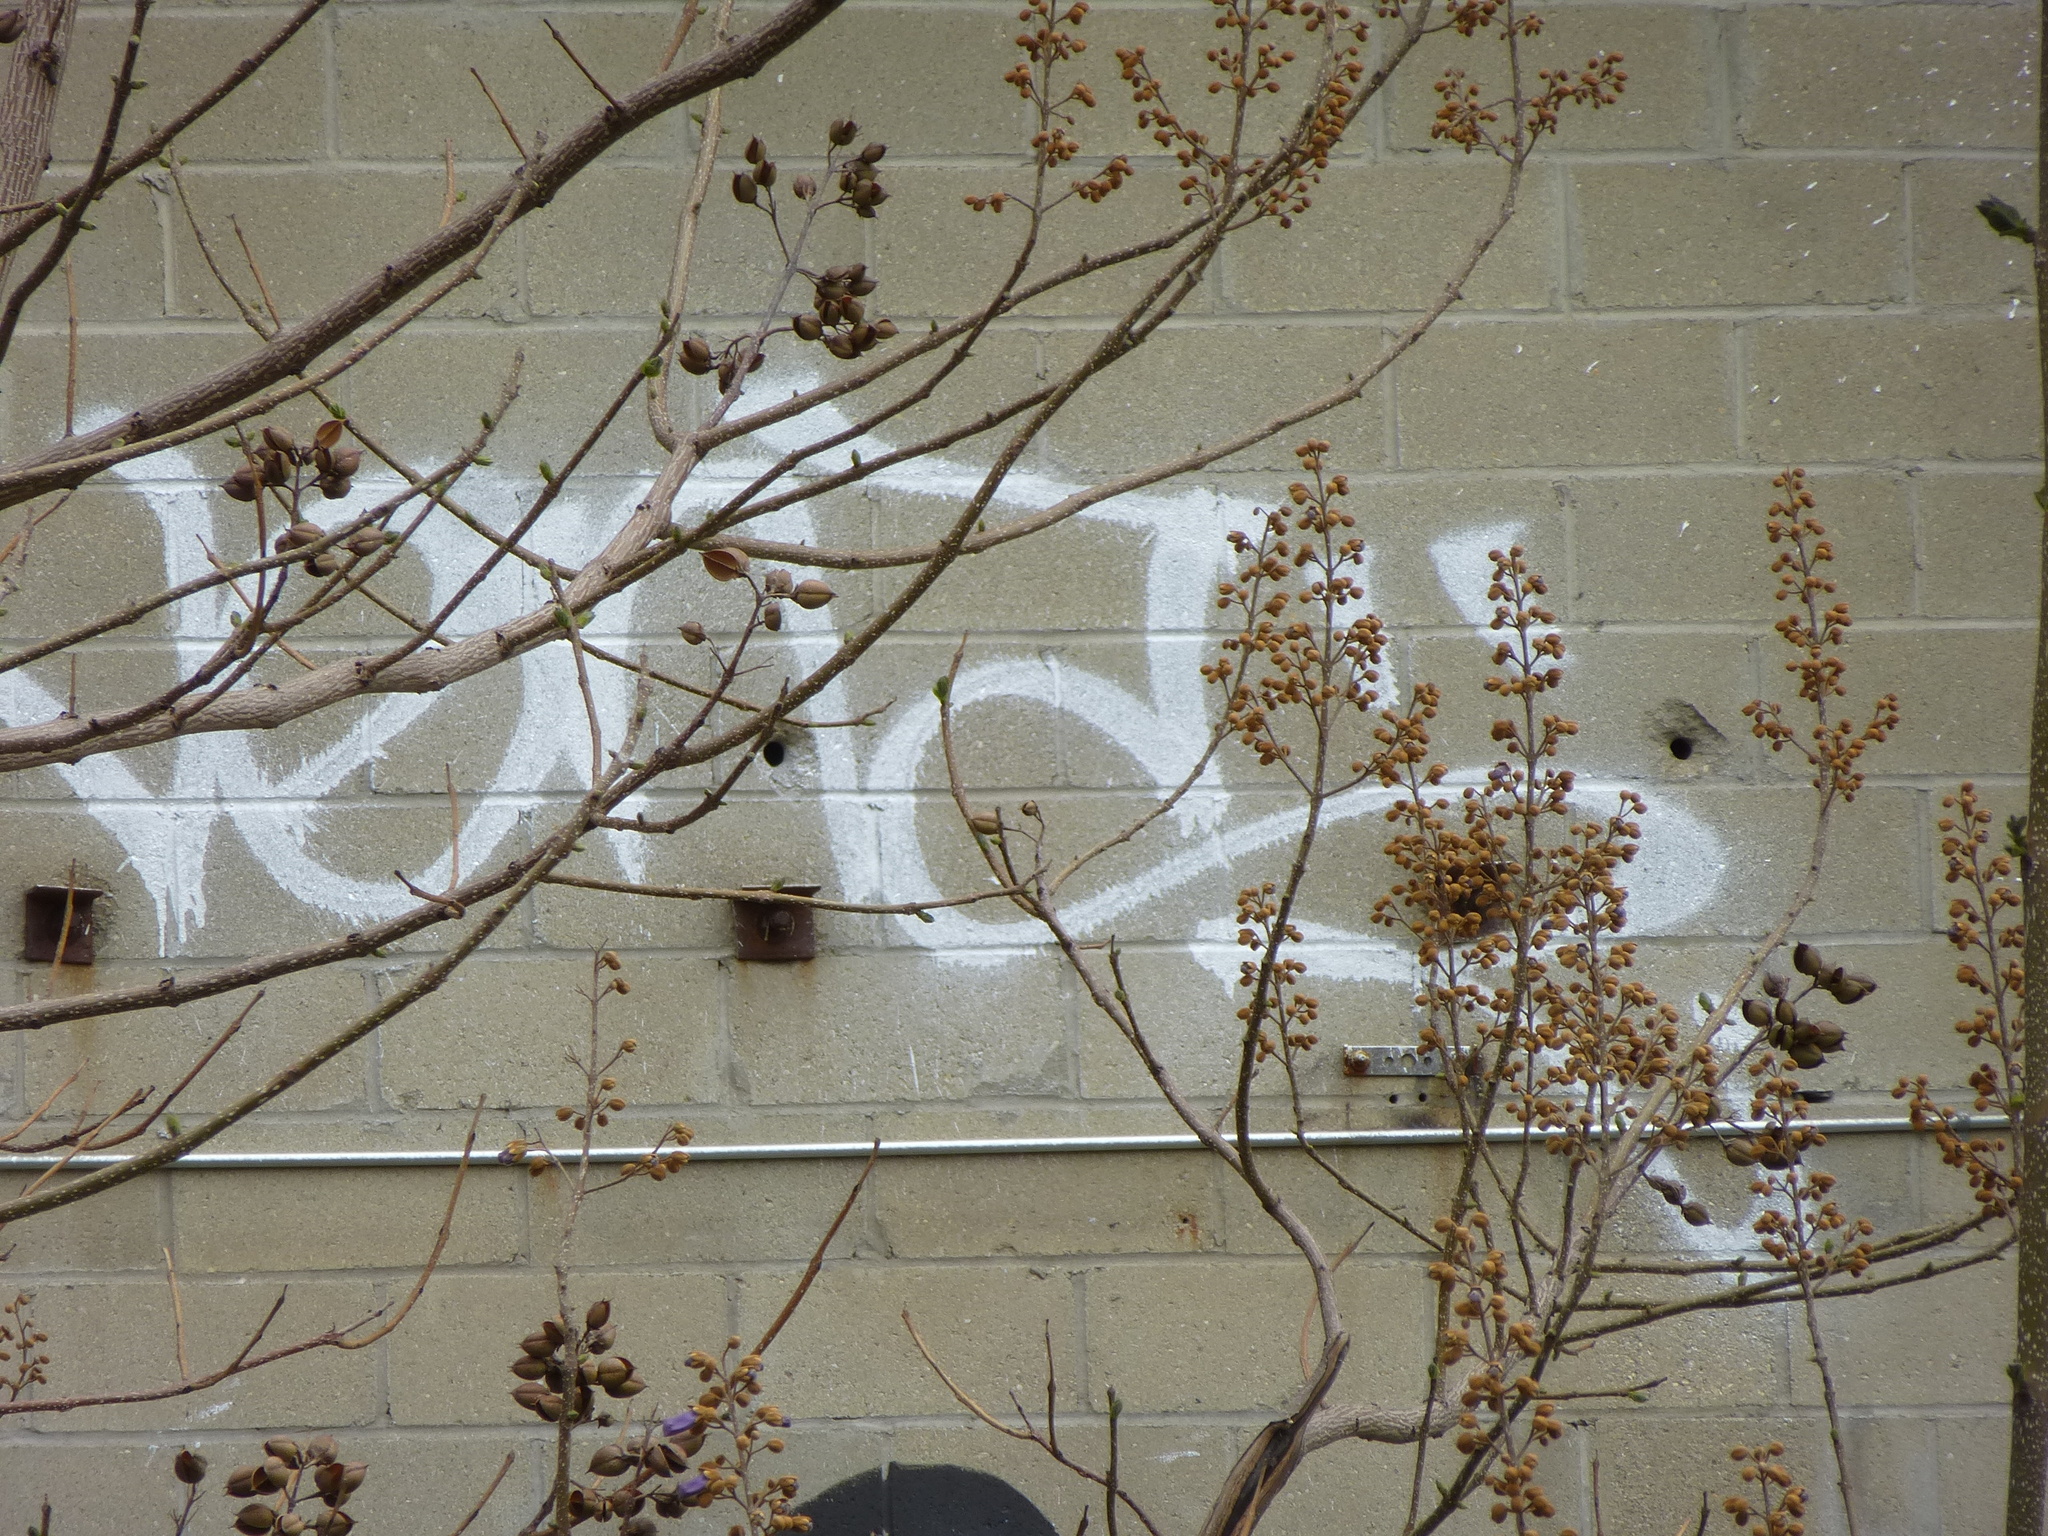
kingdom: Plantae
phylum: Tracheophyta
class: Magnoliopsida
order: Lamiales
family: Paulowniaceae
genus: Paulownia
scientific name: Paulownia tomentosa
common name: Foxglove-tree
